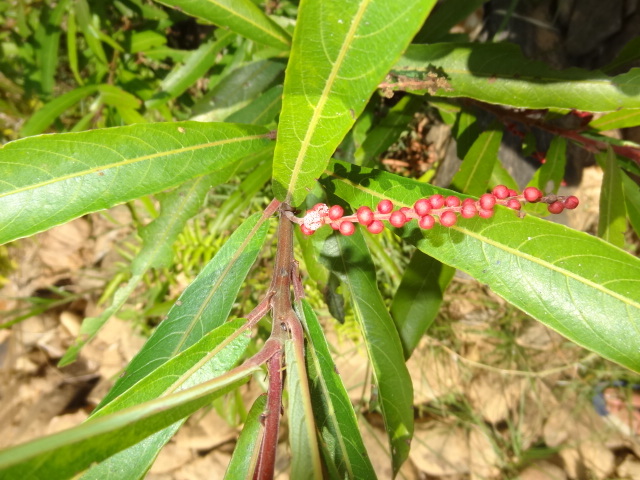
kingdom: Plantae
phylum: Tracheophyta
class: Magnoliopsida
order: Malpighiales
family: Euphorbiaceae
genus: Homonoia
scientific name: Homonoia riparia
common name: Willow-leaved water croton
